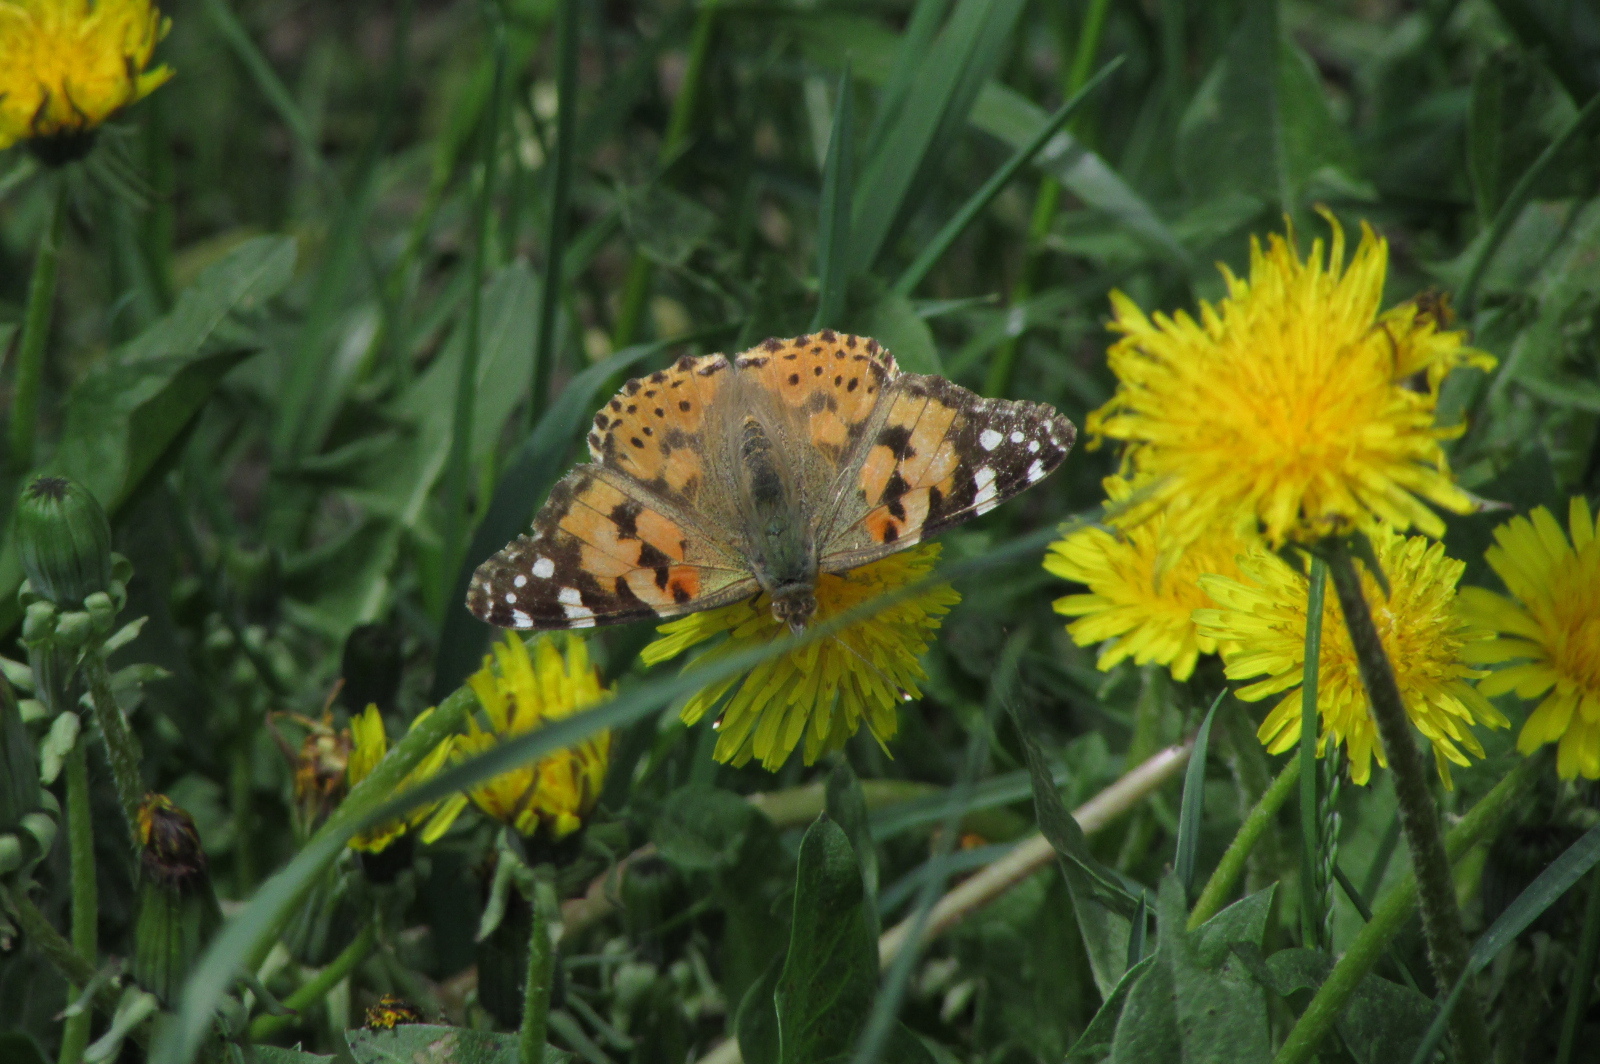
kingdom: Animalia
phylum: Arthropoda
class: Insecta
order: Lepidoptera
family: Nymphalidae
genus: Vanessa
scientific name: Vanessa cardui
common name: Painted lady
